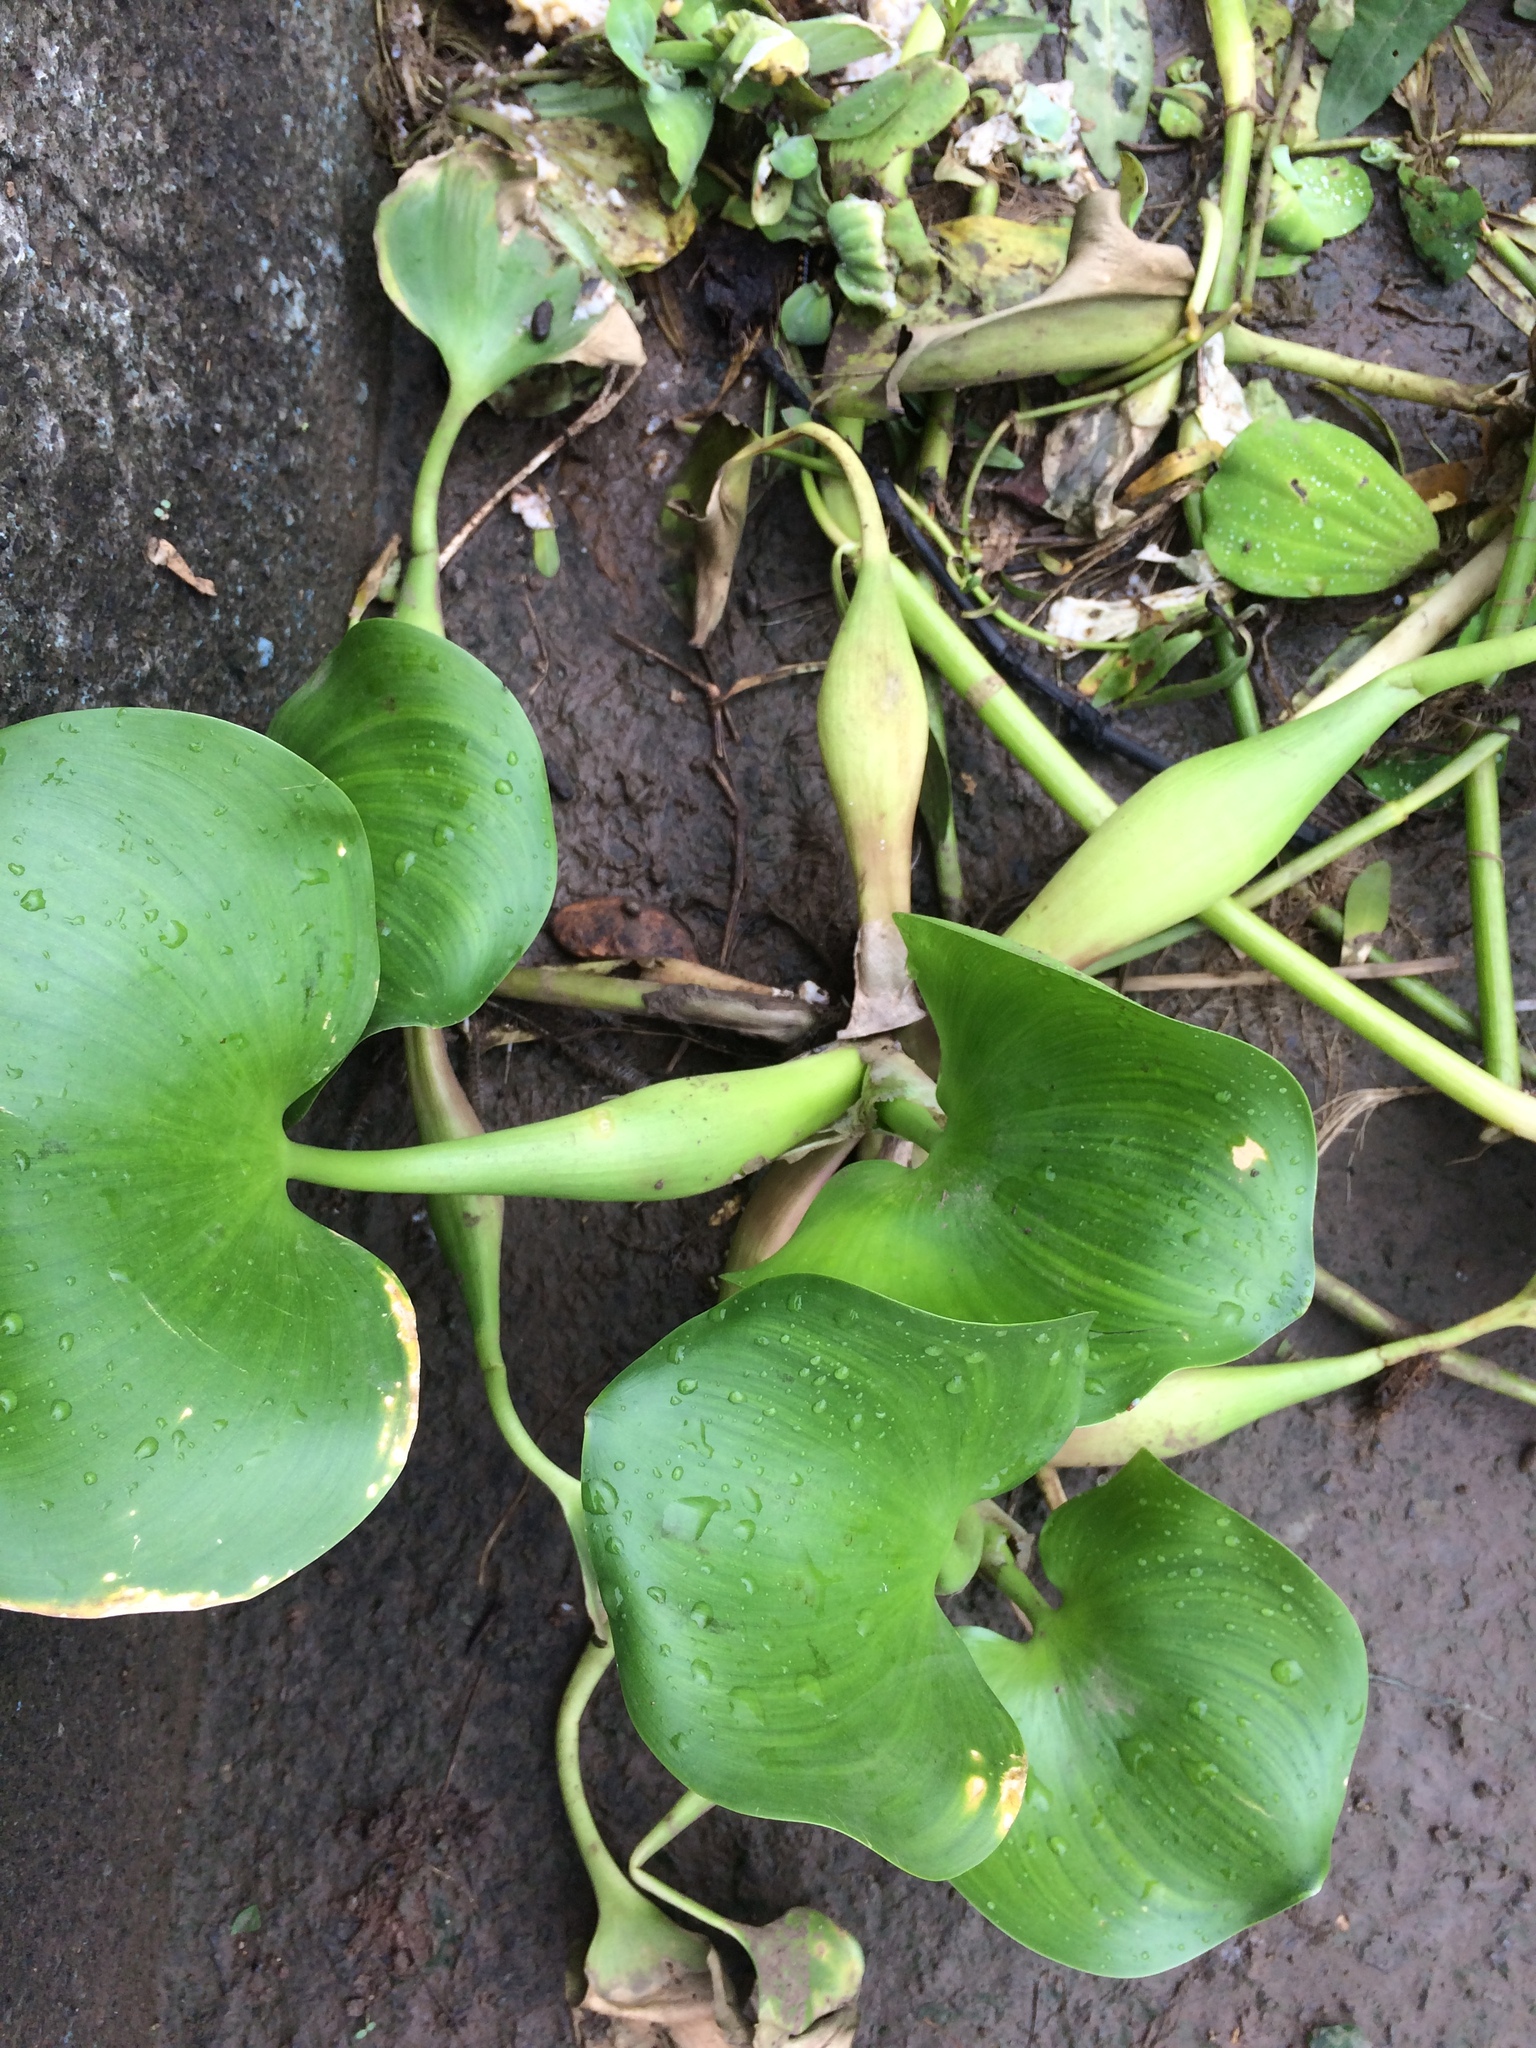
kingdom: Plantae
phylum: Tracheophyta
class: Liliopsida
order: Commelinales
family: Pontederiaceae
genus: Pontederia
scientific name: Pontederia crassipes
